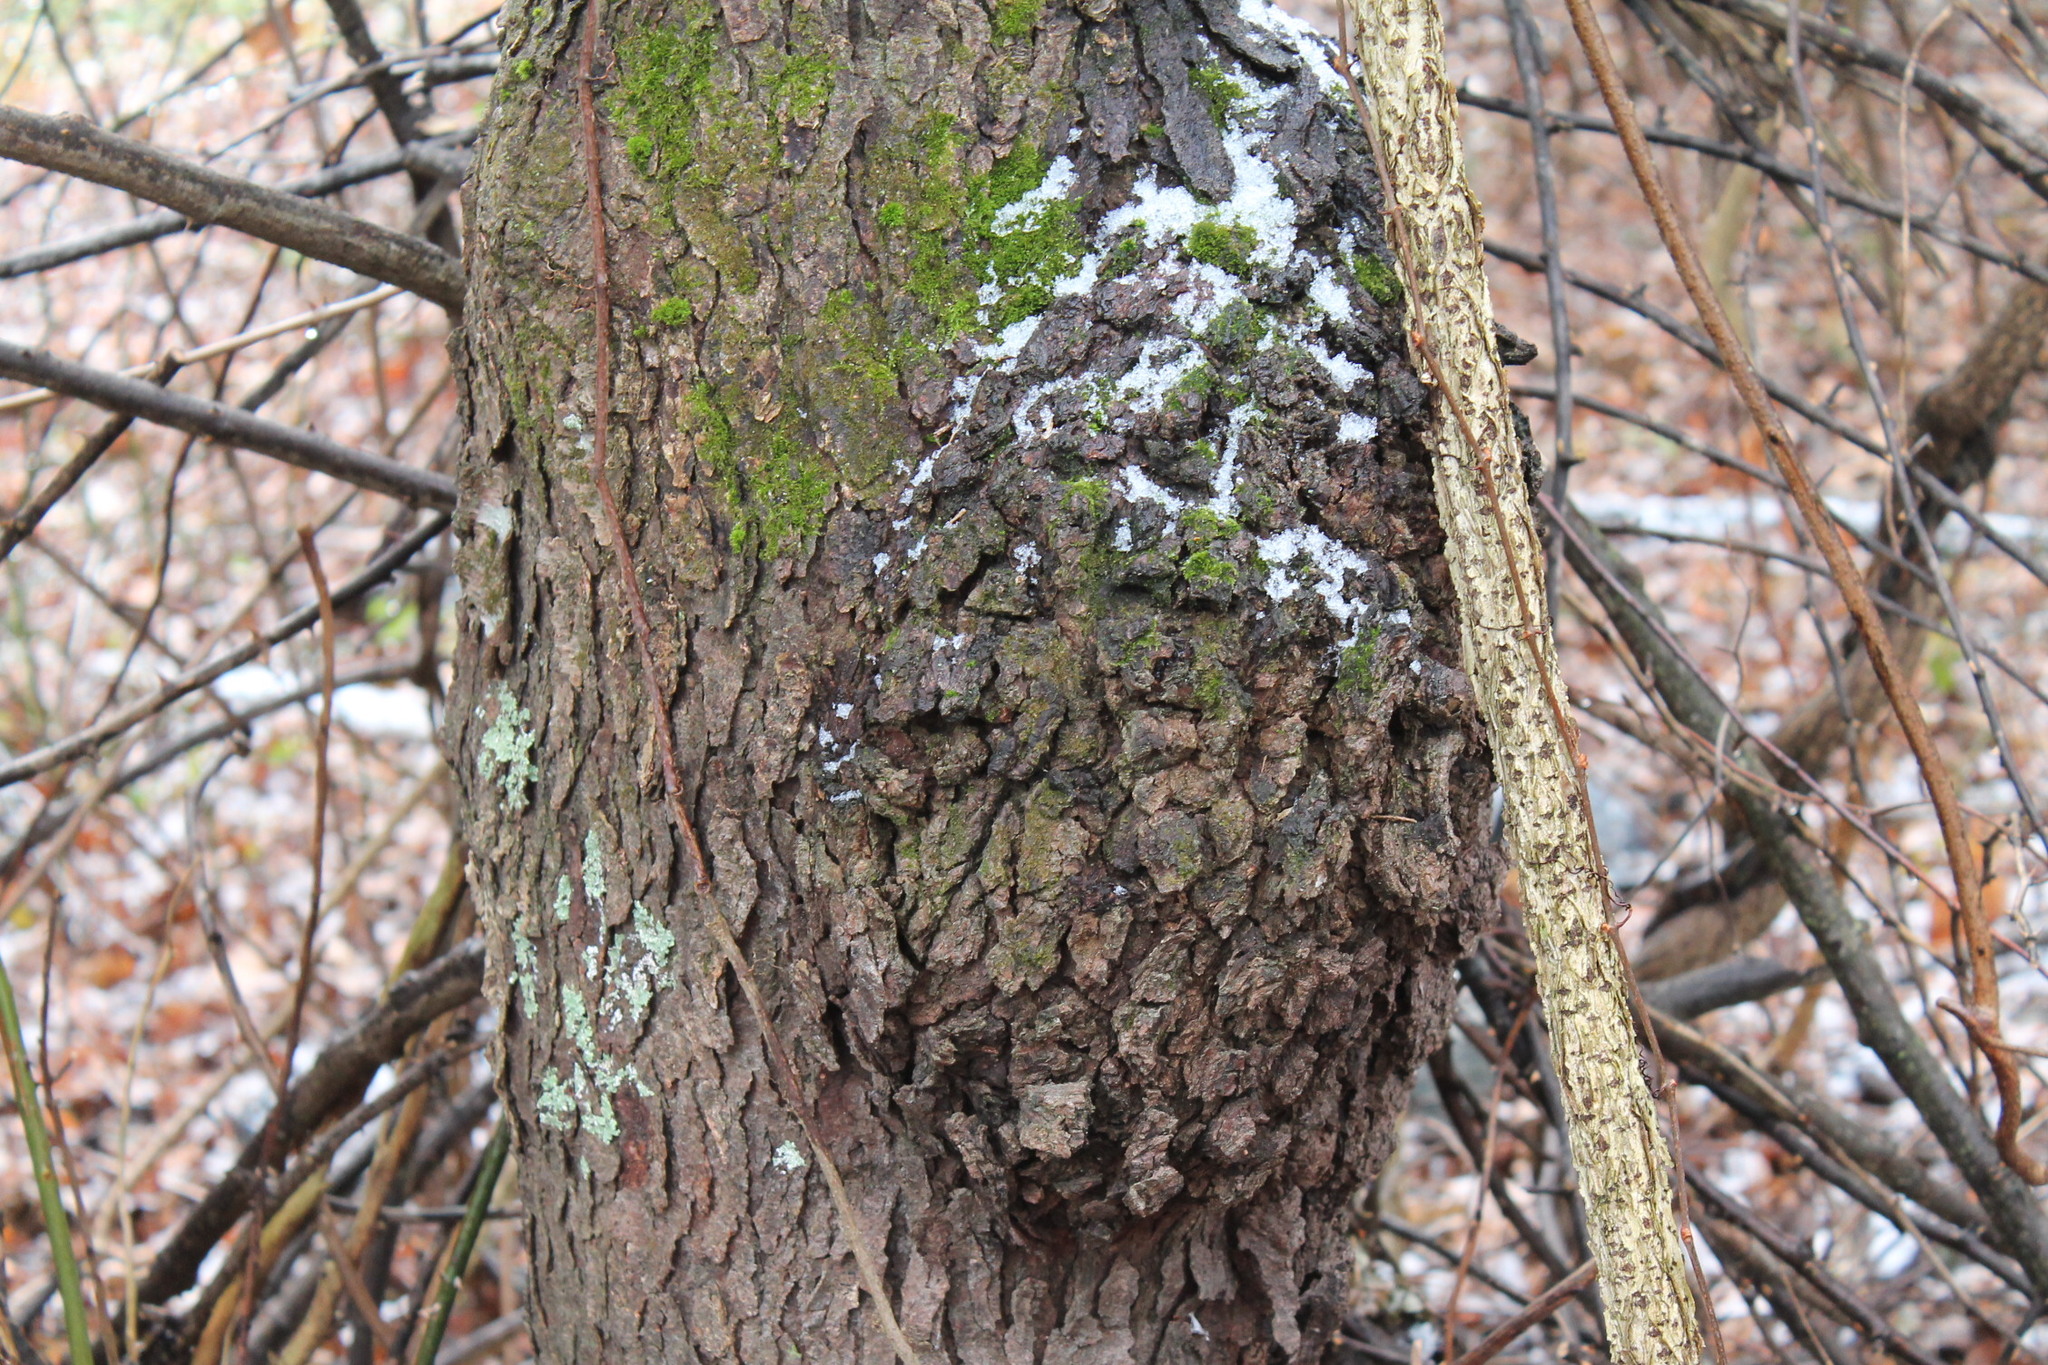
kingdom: Bacteria
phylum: Proteobacteria
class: Alphaproteobacteria
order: Rhizobiales
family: Rhizobiaceae
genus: Rhizobium
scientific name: Rhizobium Agrobacterium radiobacter
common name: Bacterial crown gall
